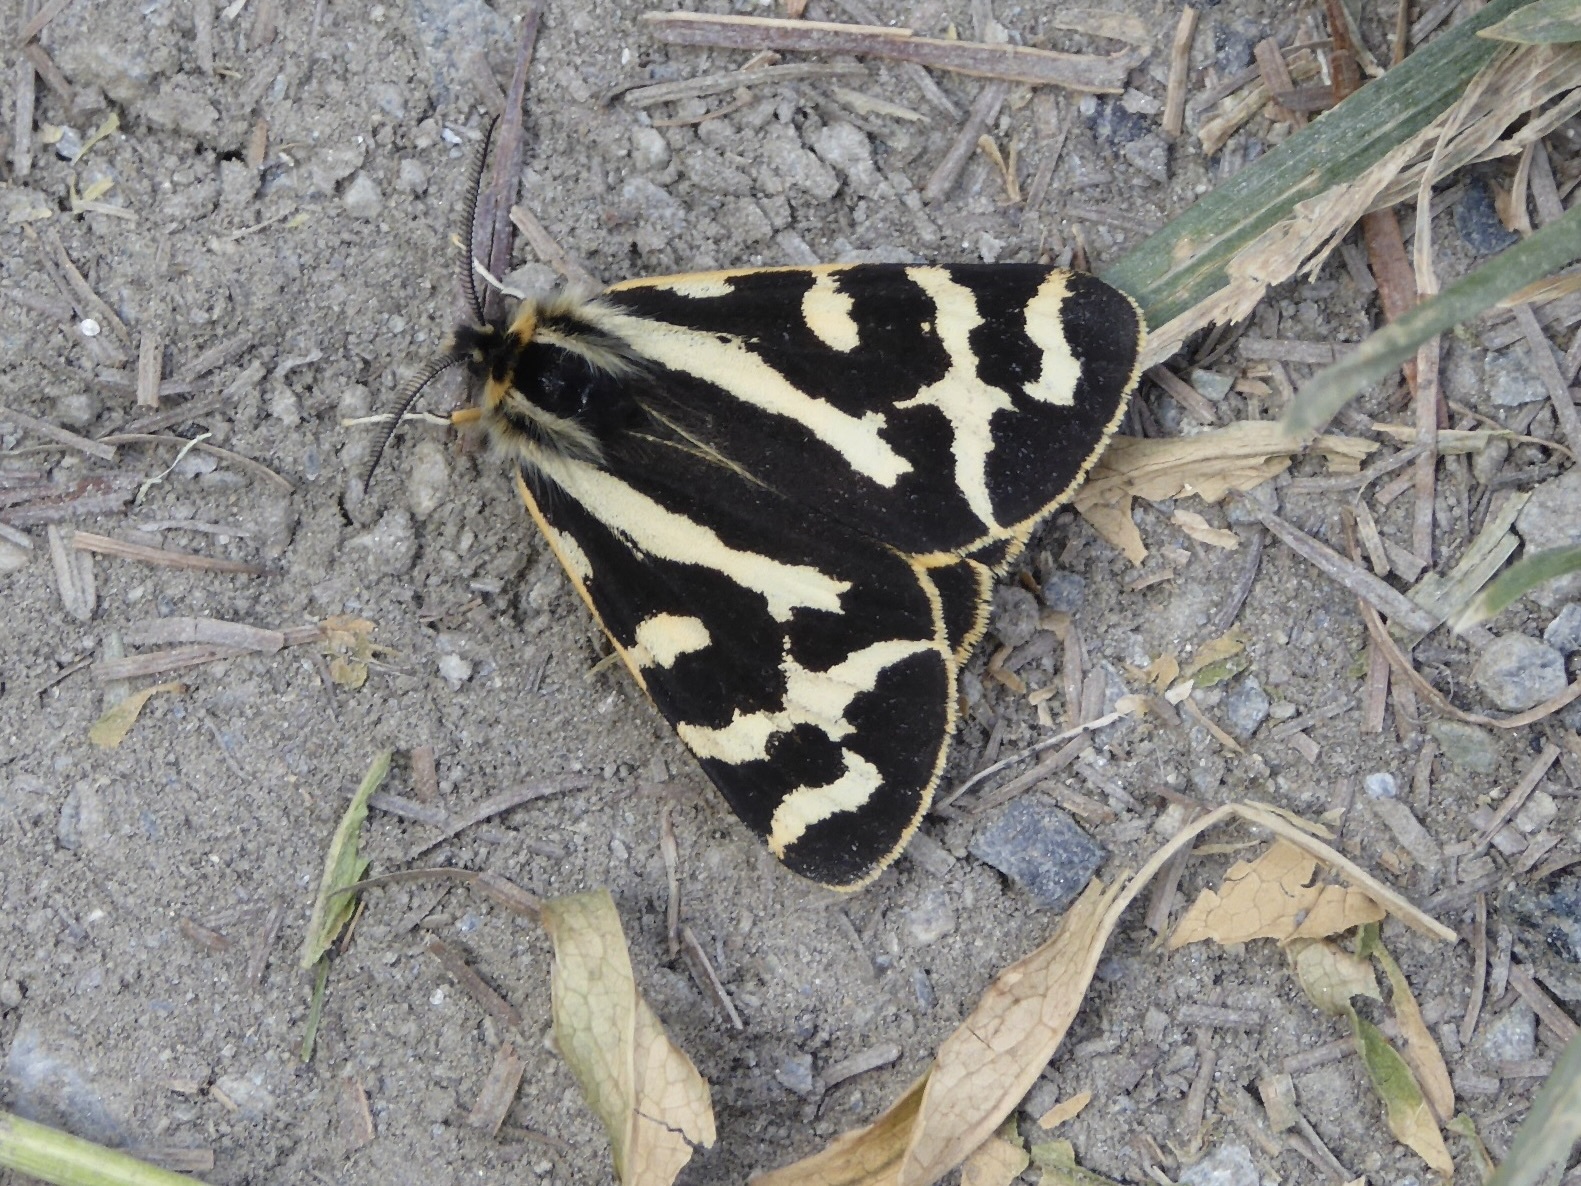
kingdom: Animalia
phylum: Arthropoda
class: Insecta
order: Lepidoptera
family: Erebidae
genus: Parasemia
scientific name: Parasemia plantaginis
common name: Wood tiger
